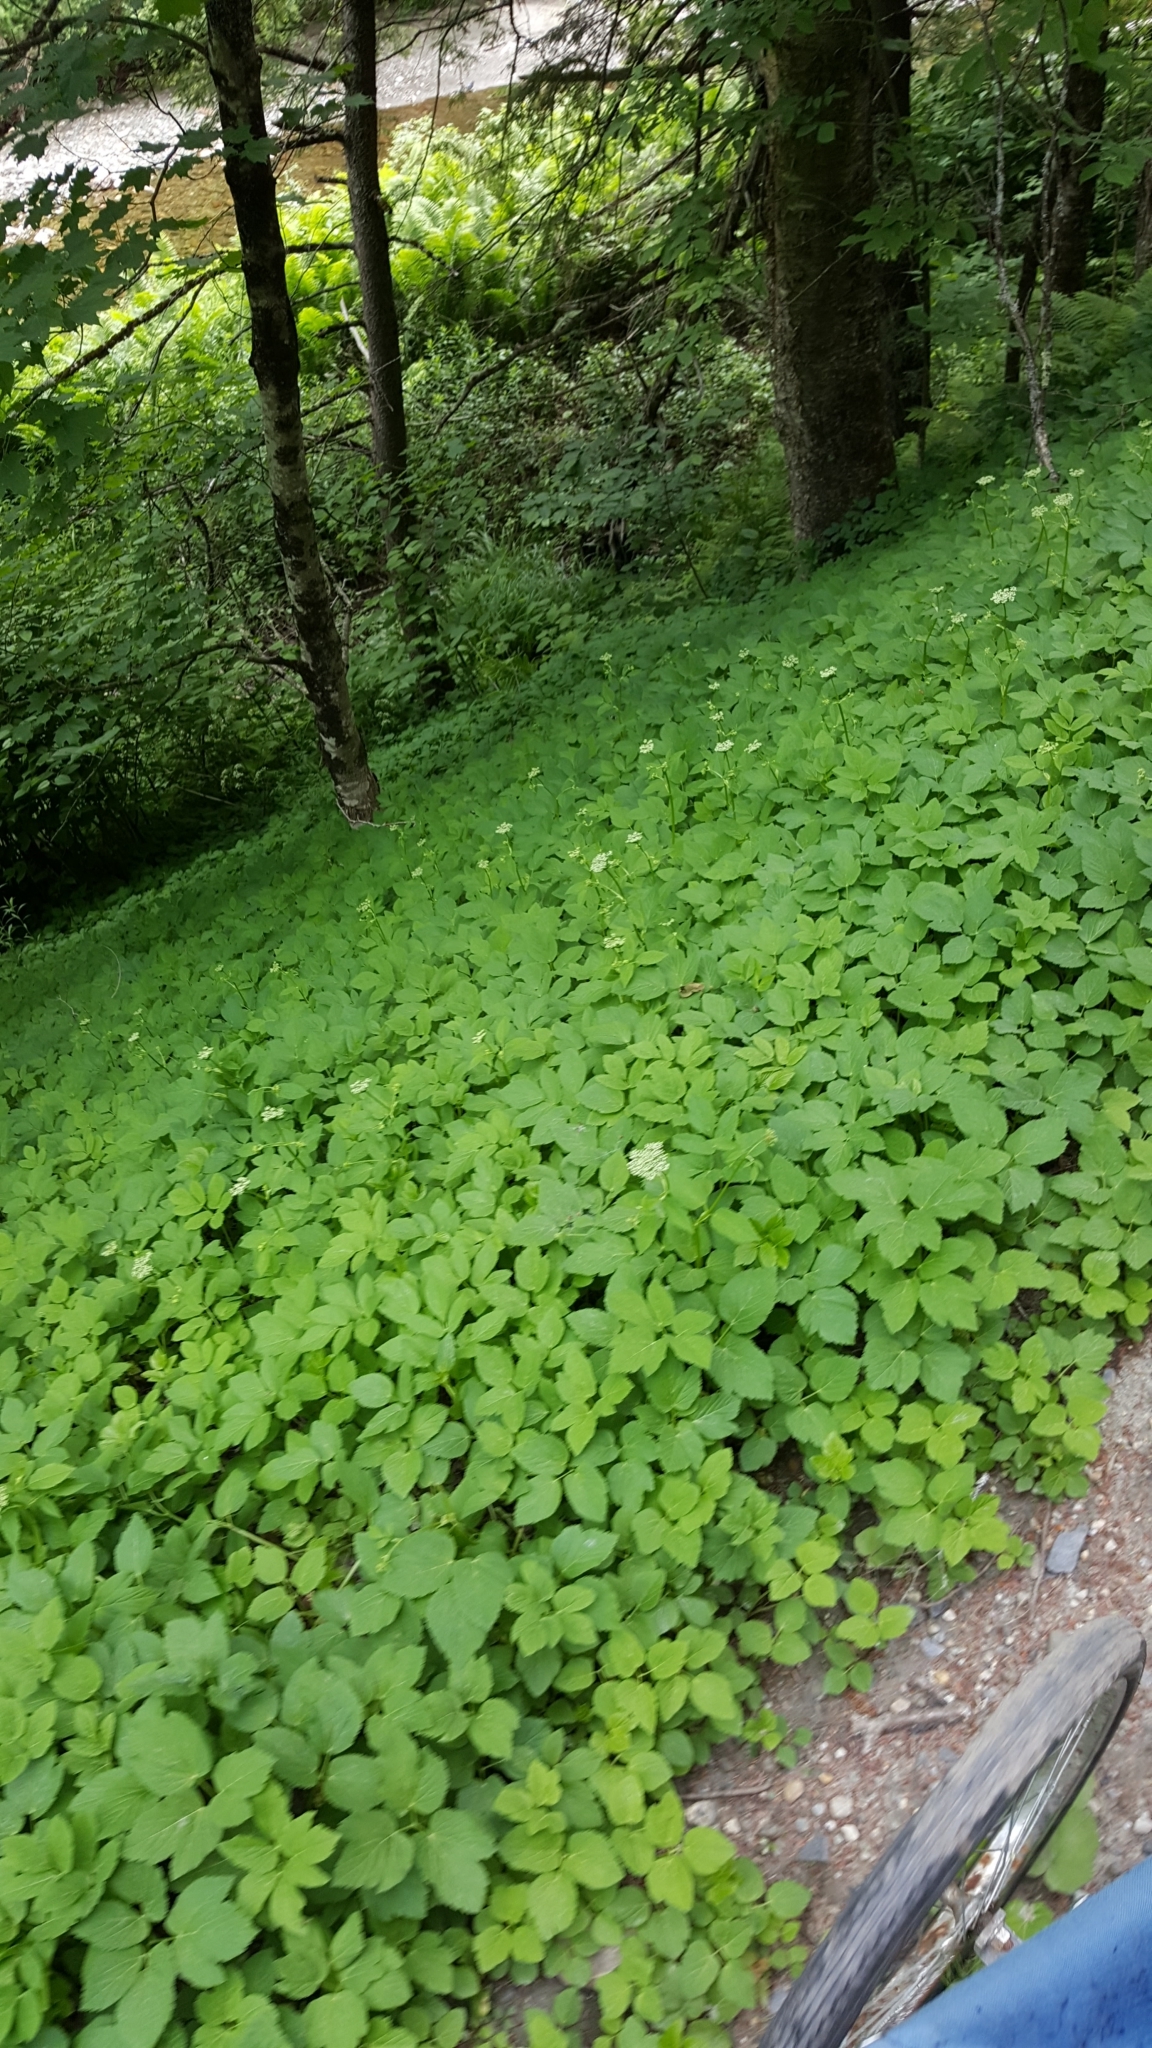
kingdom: Plantae
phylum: Tracheophyta
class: Magnoliopsida
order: Apiales
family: Apiaceae
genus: Aegopodium
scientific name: Aegopodium podagraria
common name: Ground-elder
